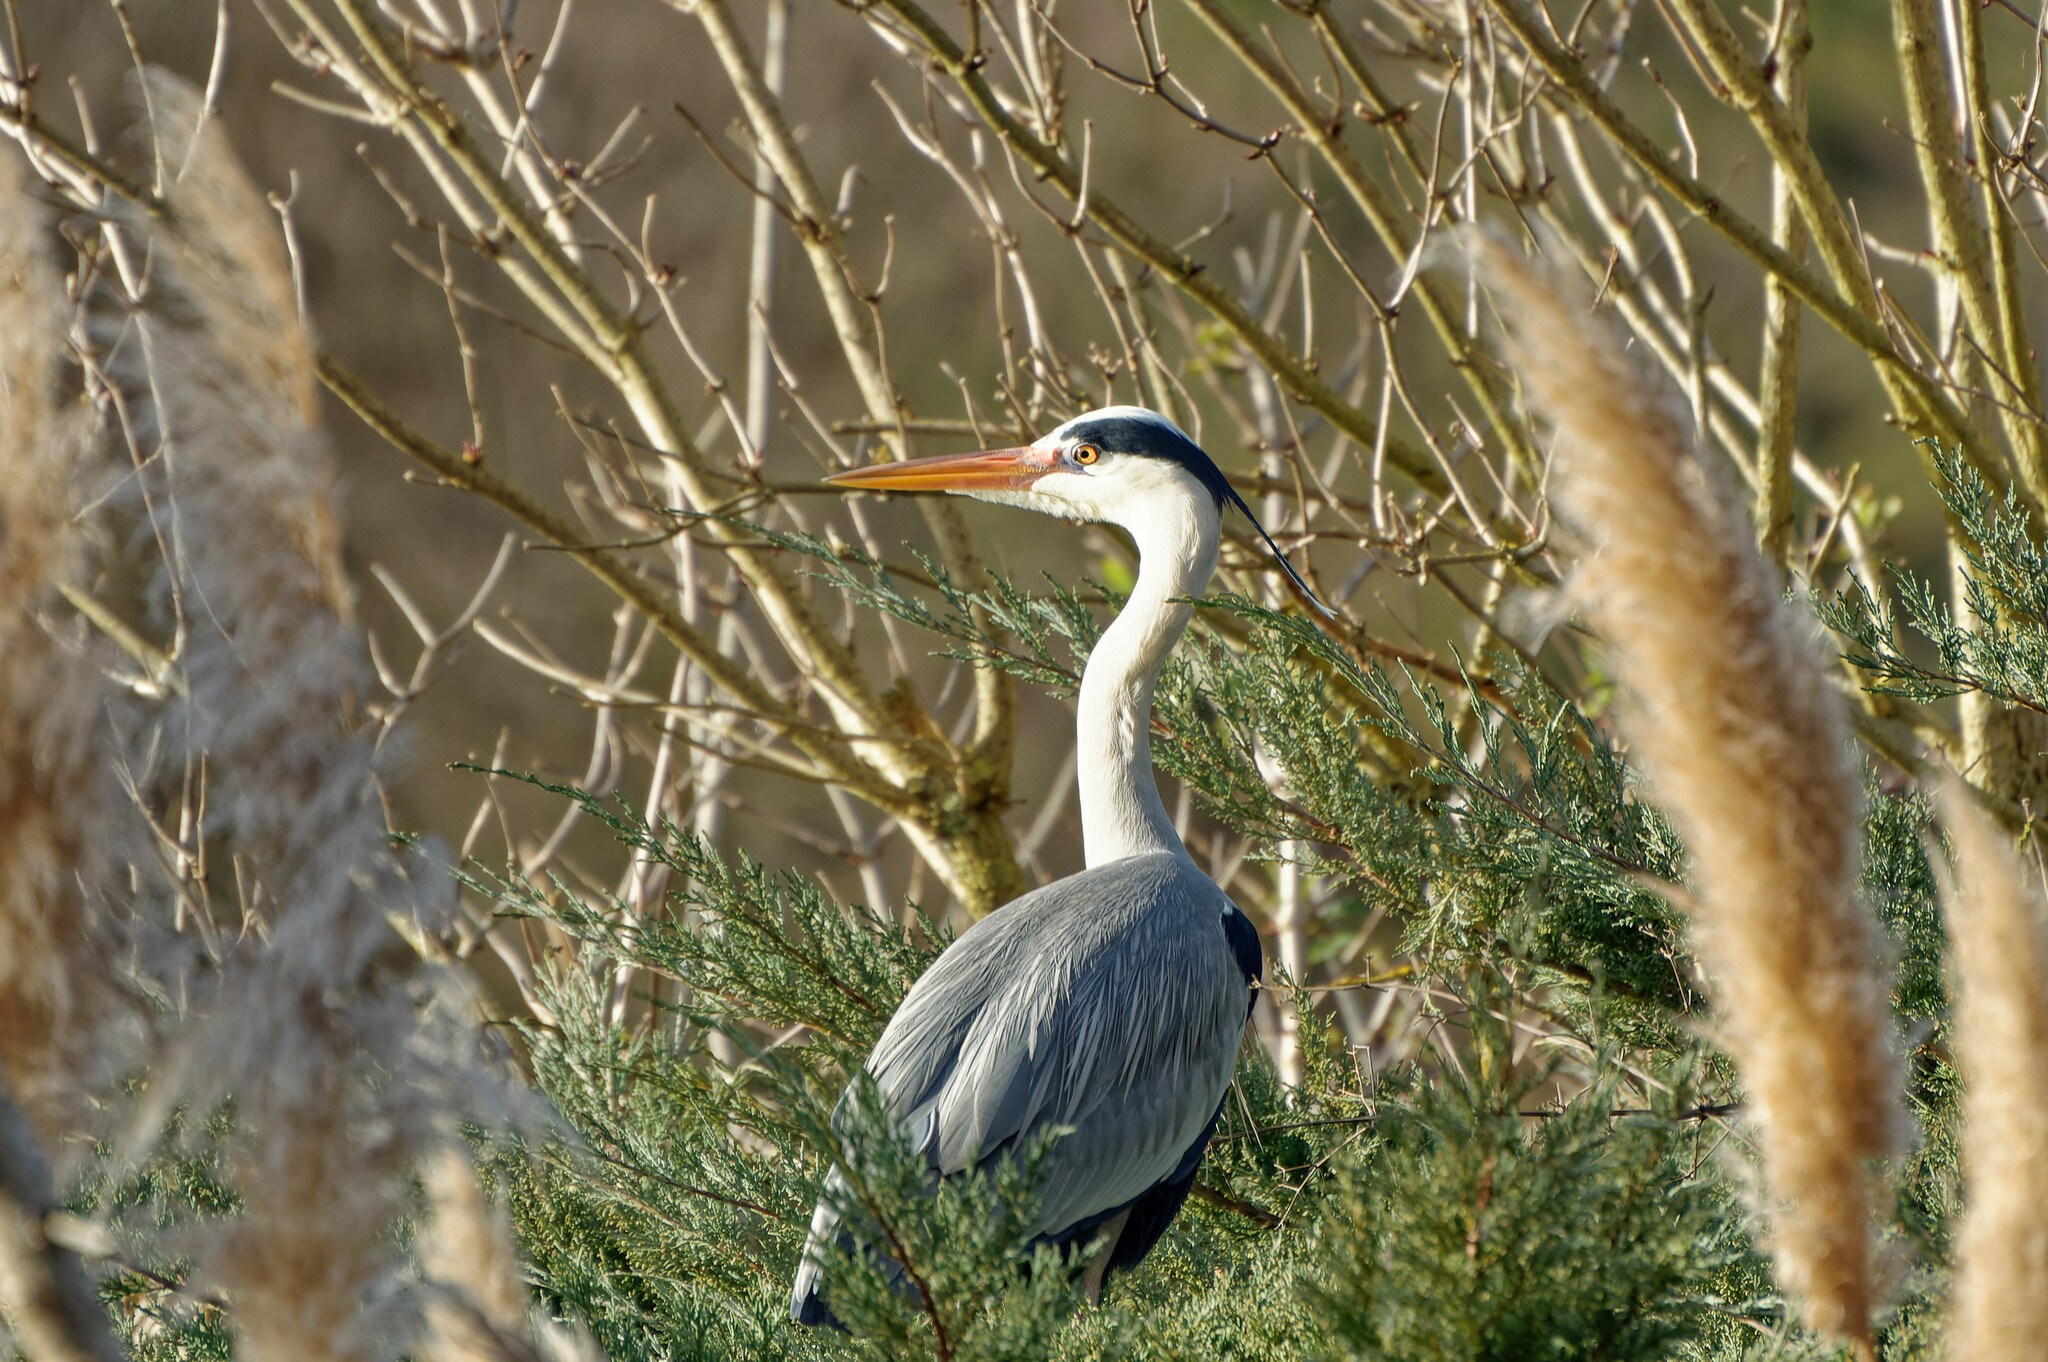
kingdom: Animalia
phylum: Chordata
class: Aves
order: Pelecaniformes
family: Ardeidae
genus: Ardea
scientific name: Ardea cinerea
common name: Grey heron
